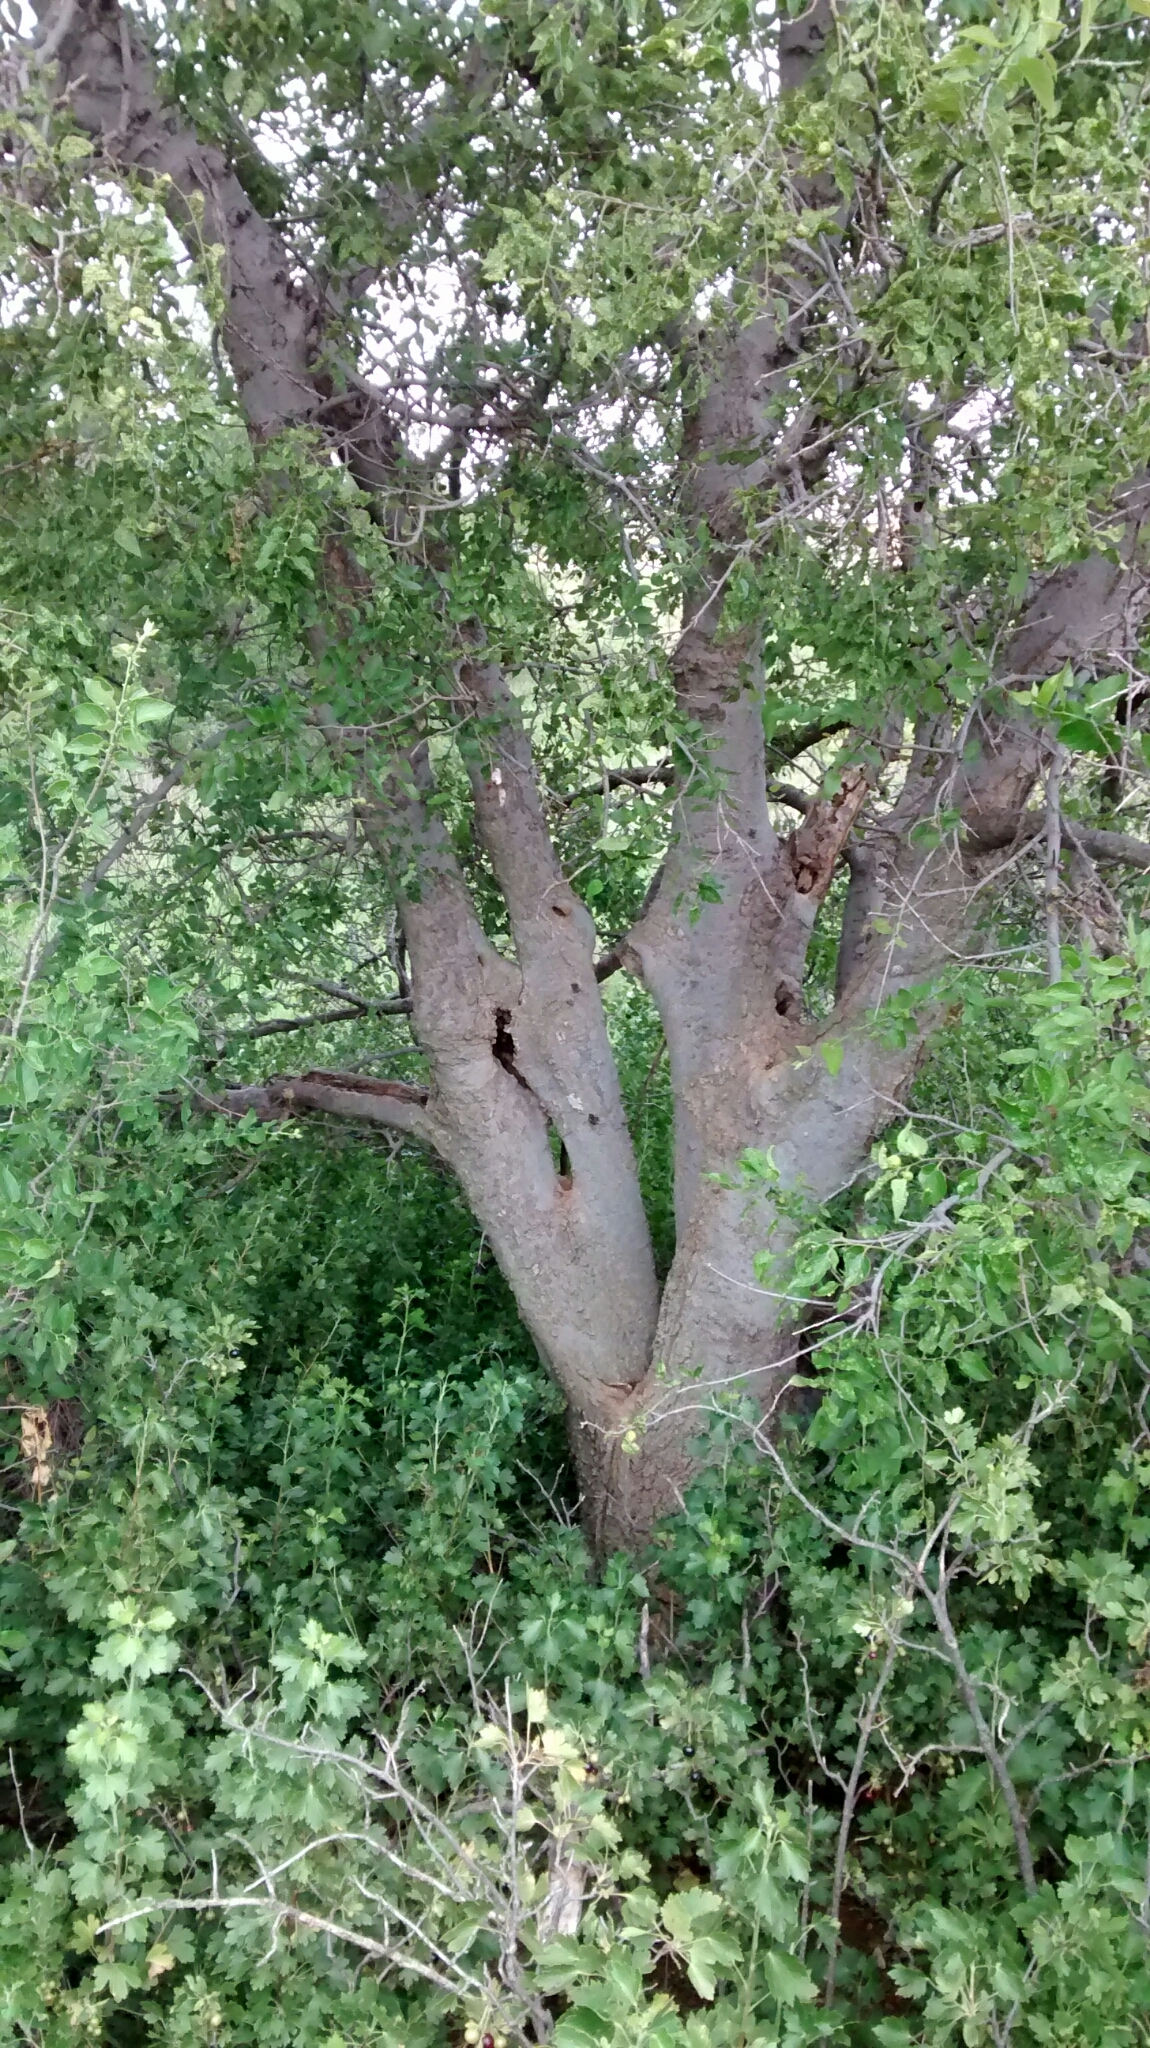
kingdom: Plantae
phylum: Tracheophyta
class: Magnoliopsida
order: Rosales
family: Cannabaceae
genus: Celtis
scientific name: Celtis reticulata
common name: Netleaf hackberry
